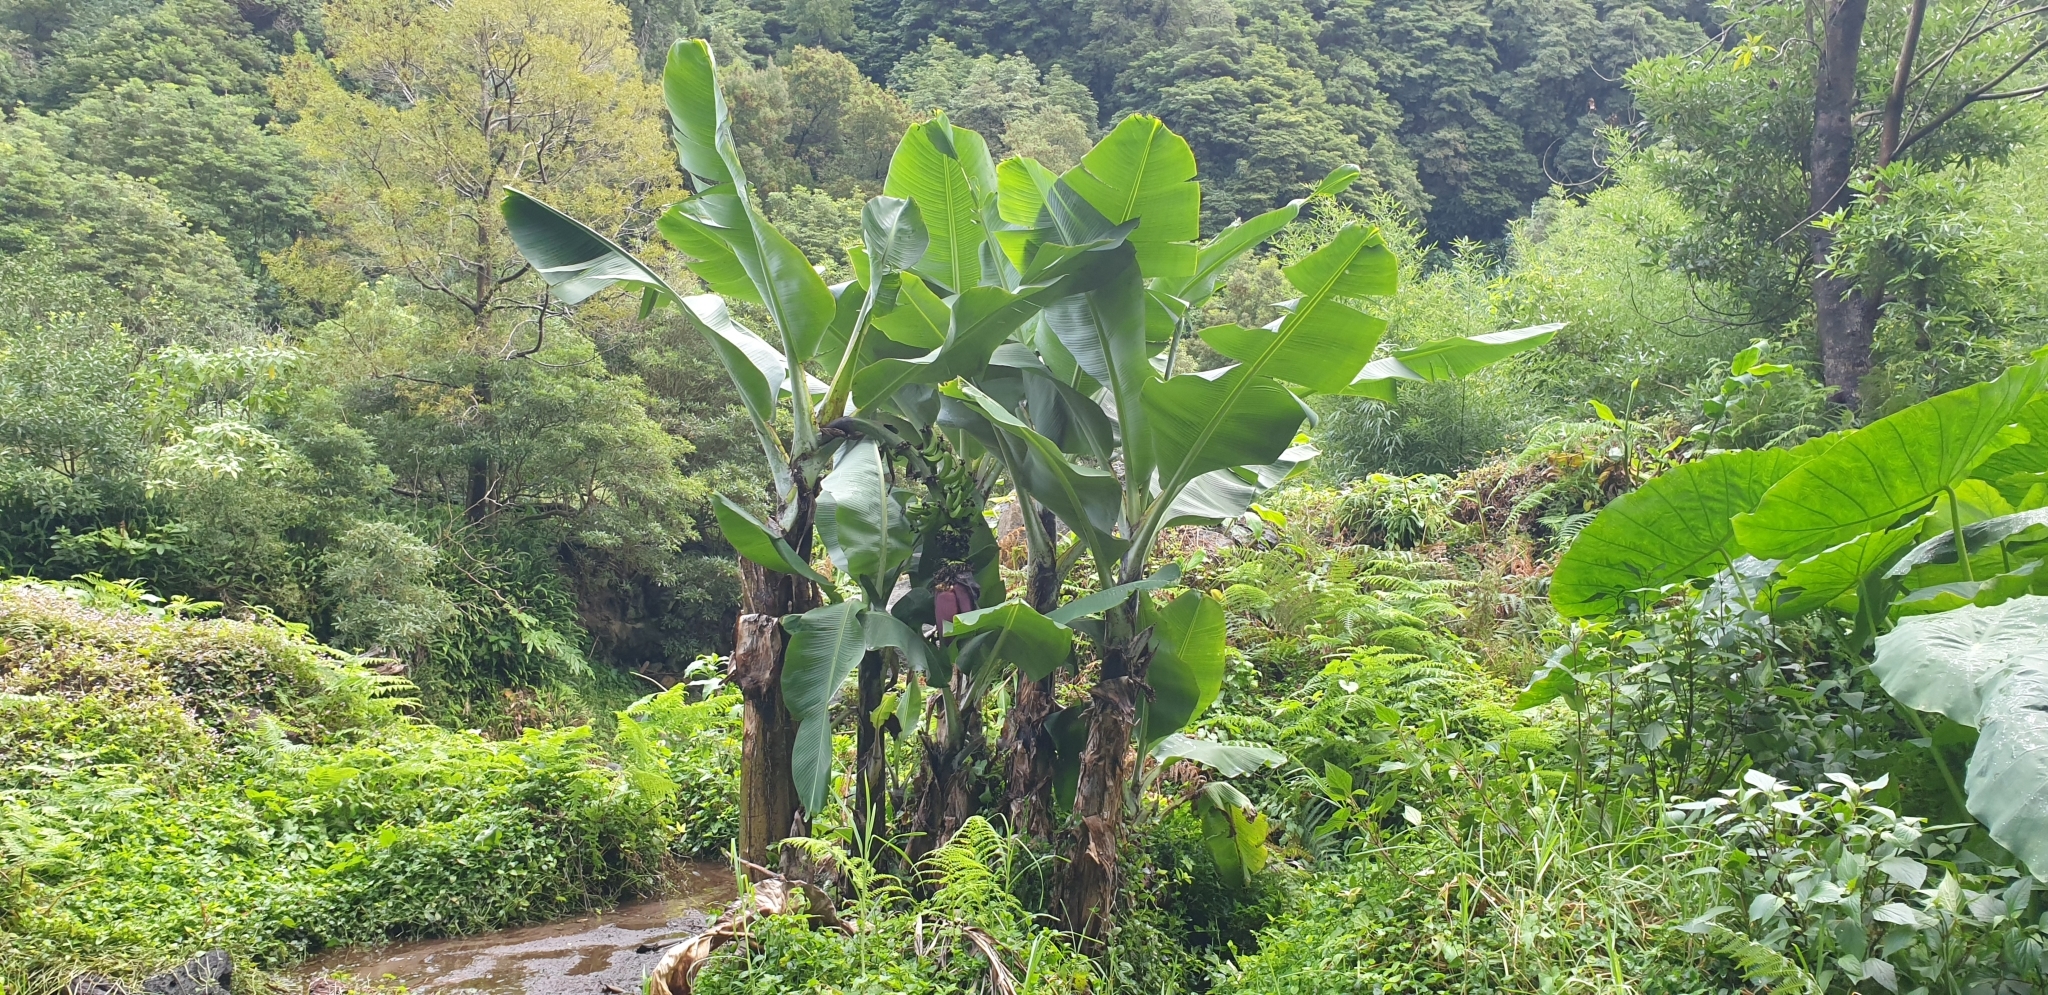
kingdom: Plantae
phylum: Tracheophyta
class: Liliopsida
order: Zingiberales
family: Musaceae
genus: Musa
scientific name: Musa acuminata
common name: Edible banana
